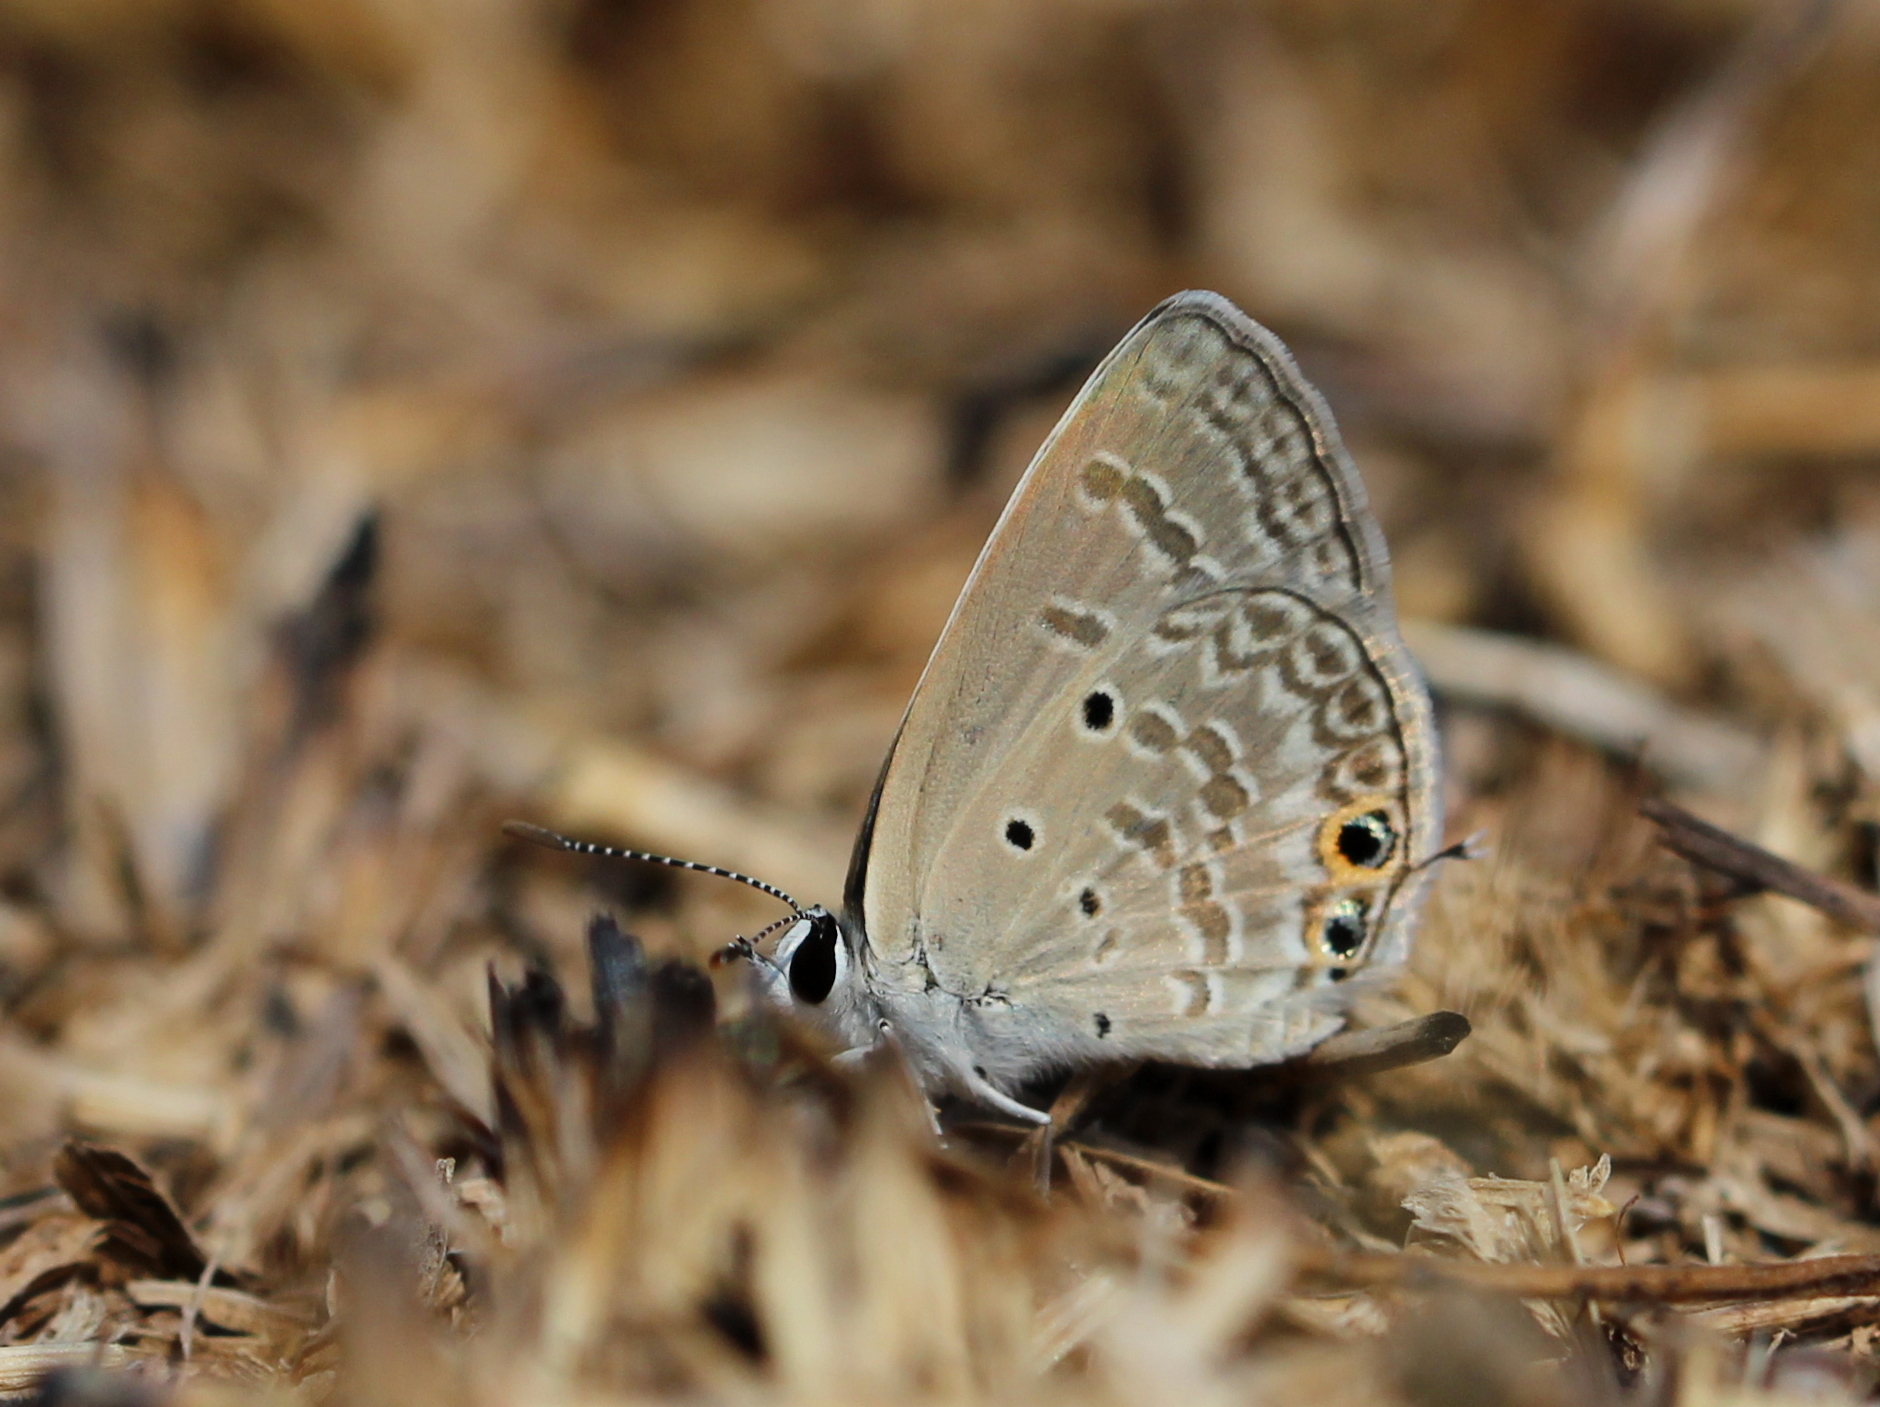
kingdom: Animalia
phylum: Arthropoda
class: Insecta
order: Lepidoptera
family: Lycaenidae
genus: Chilades
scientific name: Chilades parrhasius
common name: Small cupid
